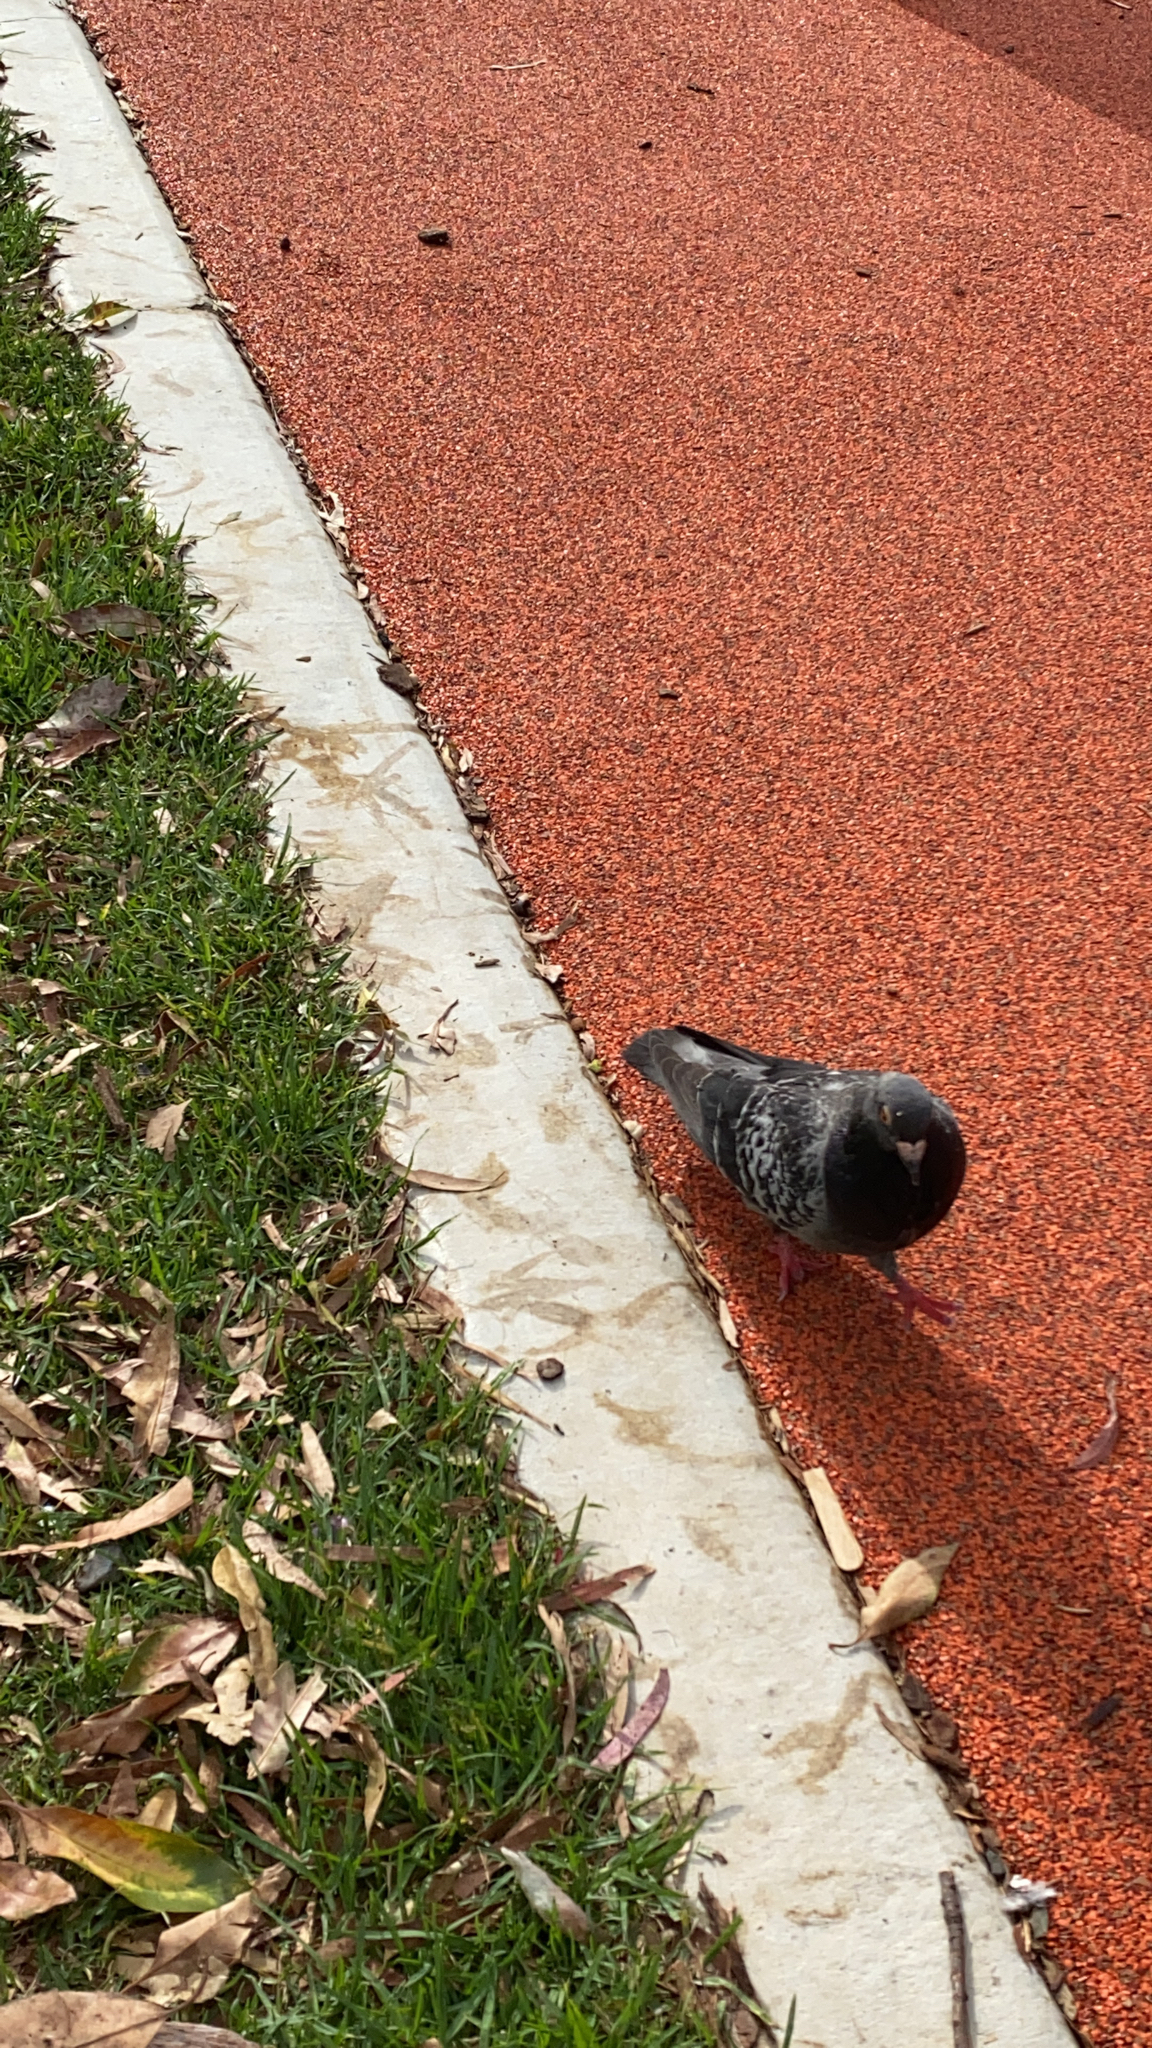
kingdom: Animalia
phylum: Chordata
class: Aves
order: Columbiformes
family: Columbidae
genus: Columba
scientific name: Columba livia
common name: Rock pigeon
